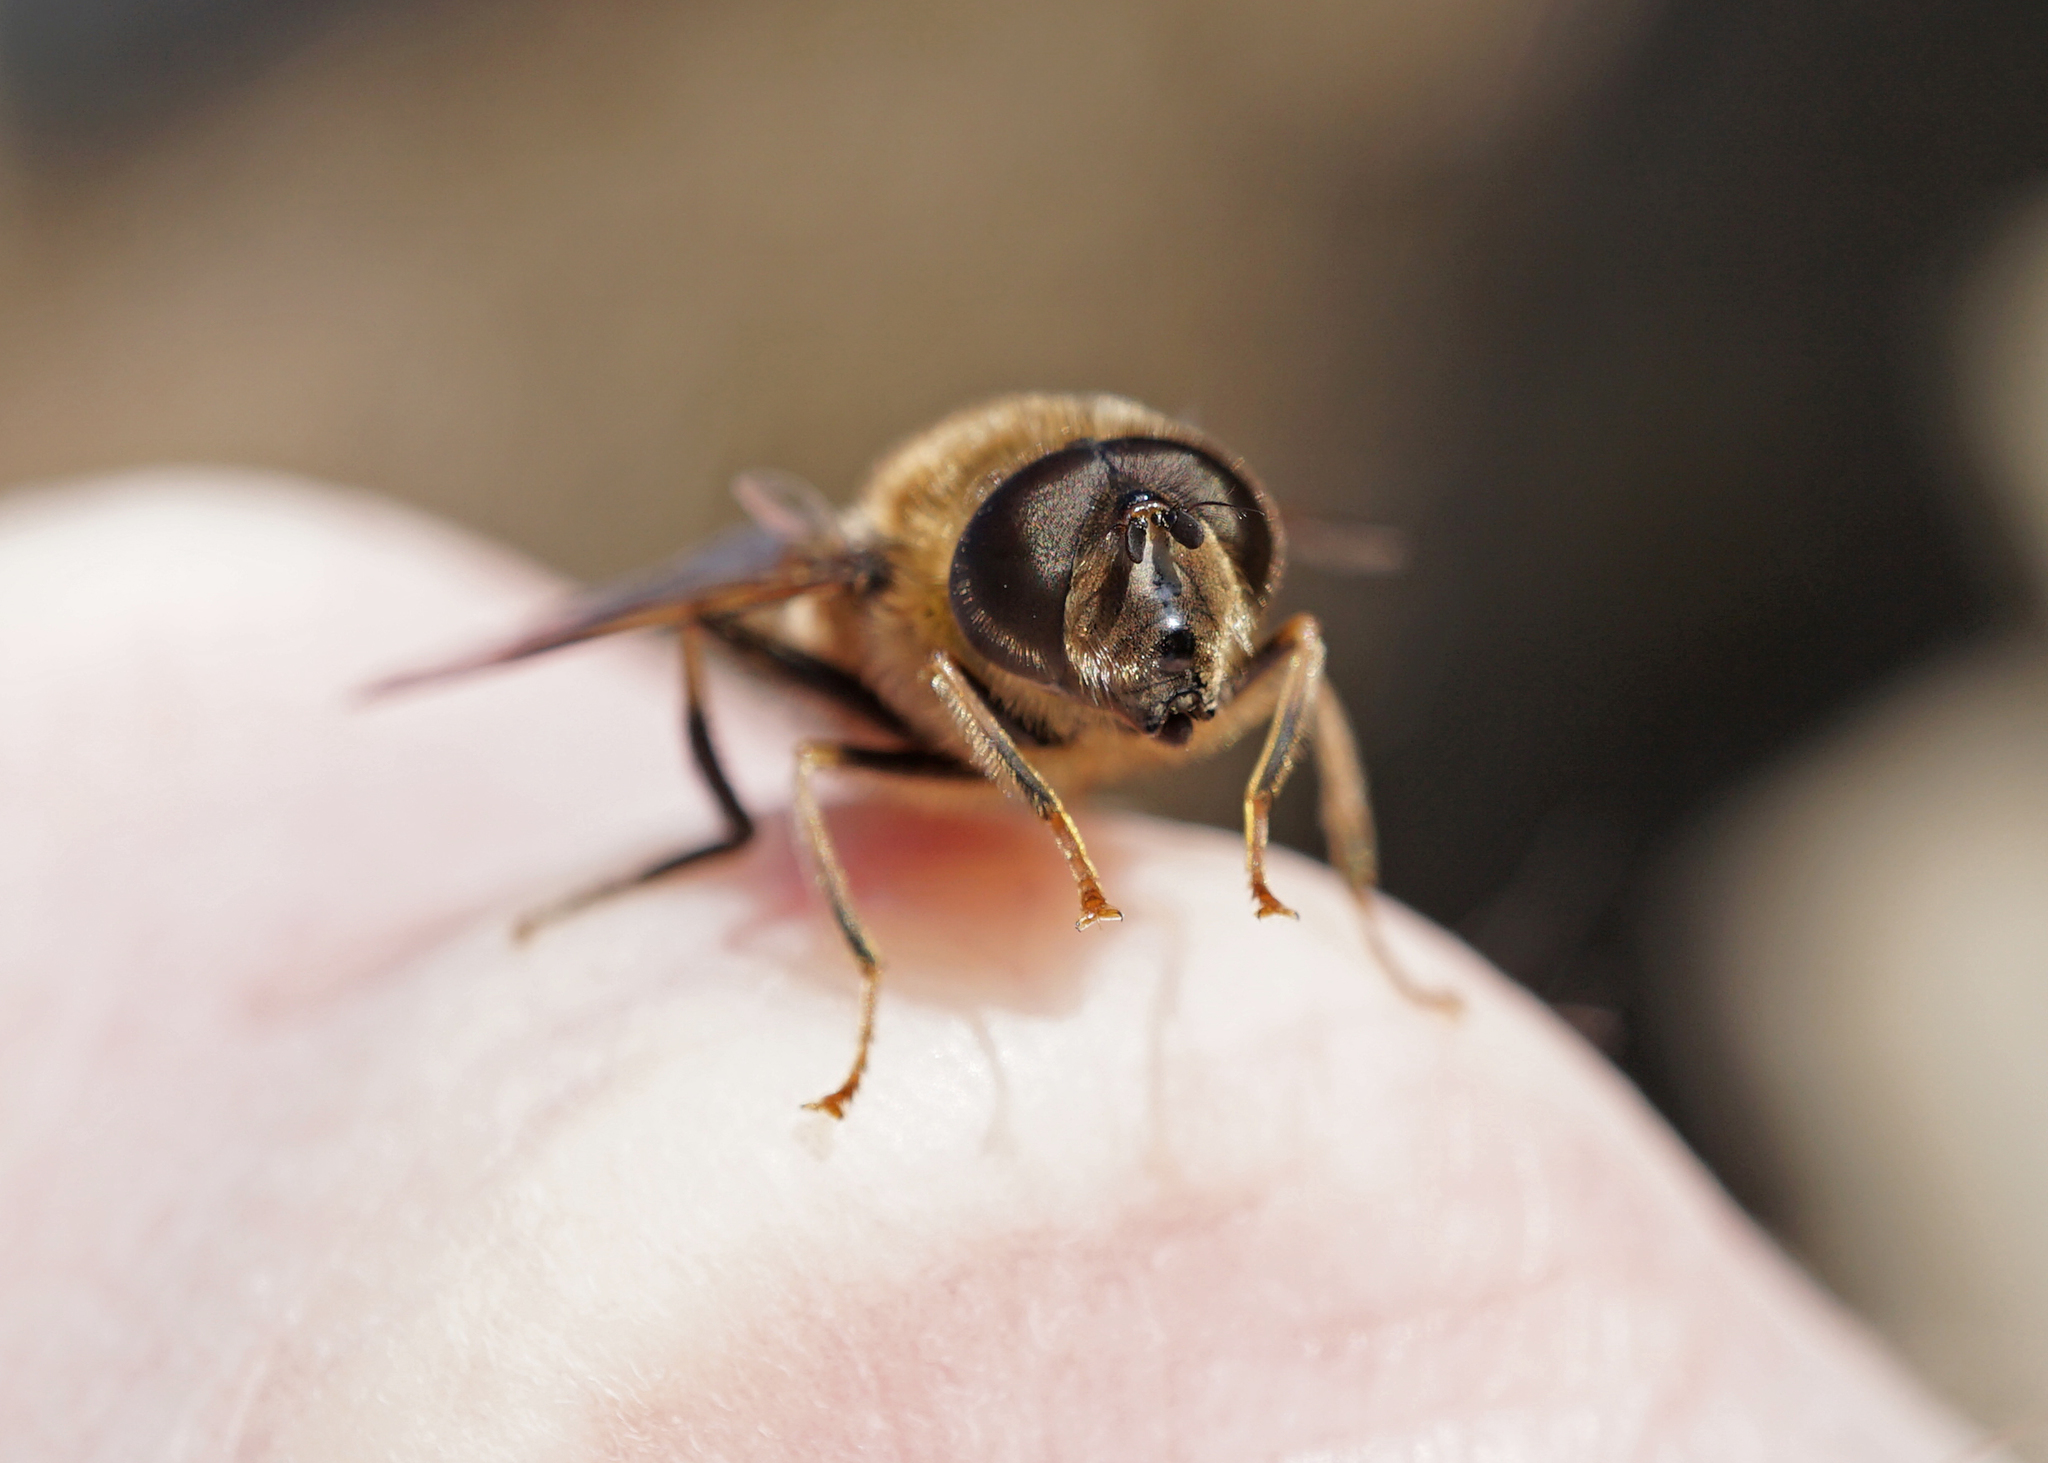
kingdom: Animalia
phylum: Arthropoda
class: Insecta
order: Diptera
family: Syrphidae
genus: Eristalis
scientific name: Eristalis pertinax
